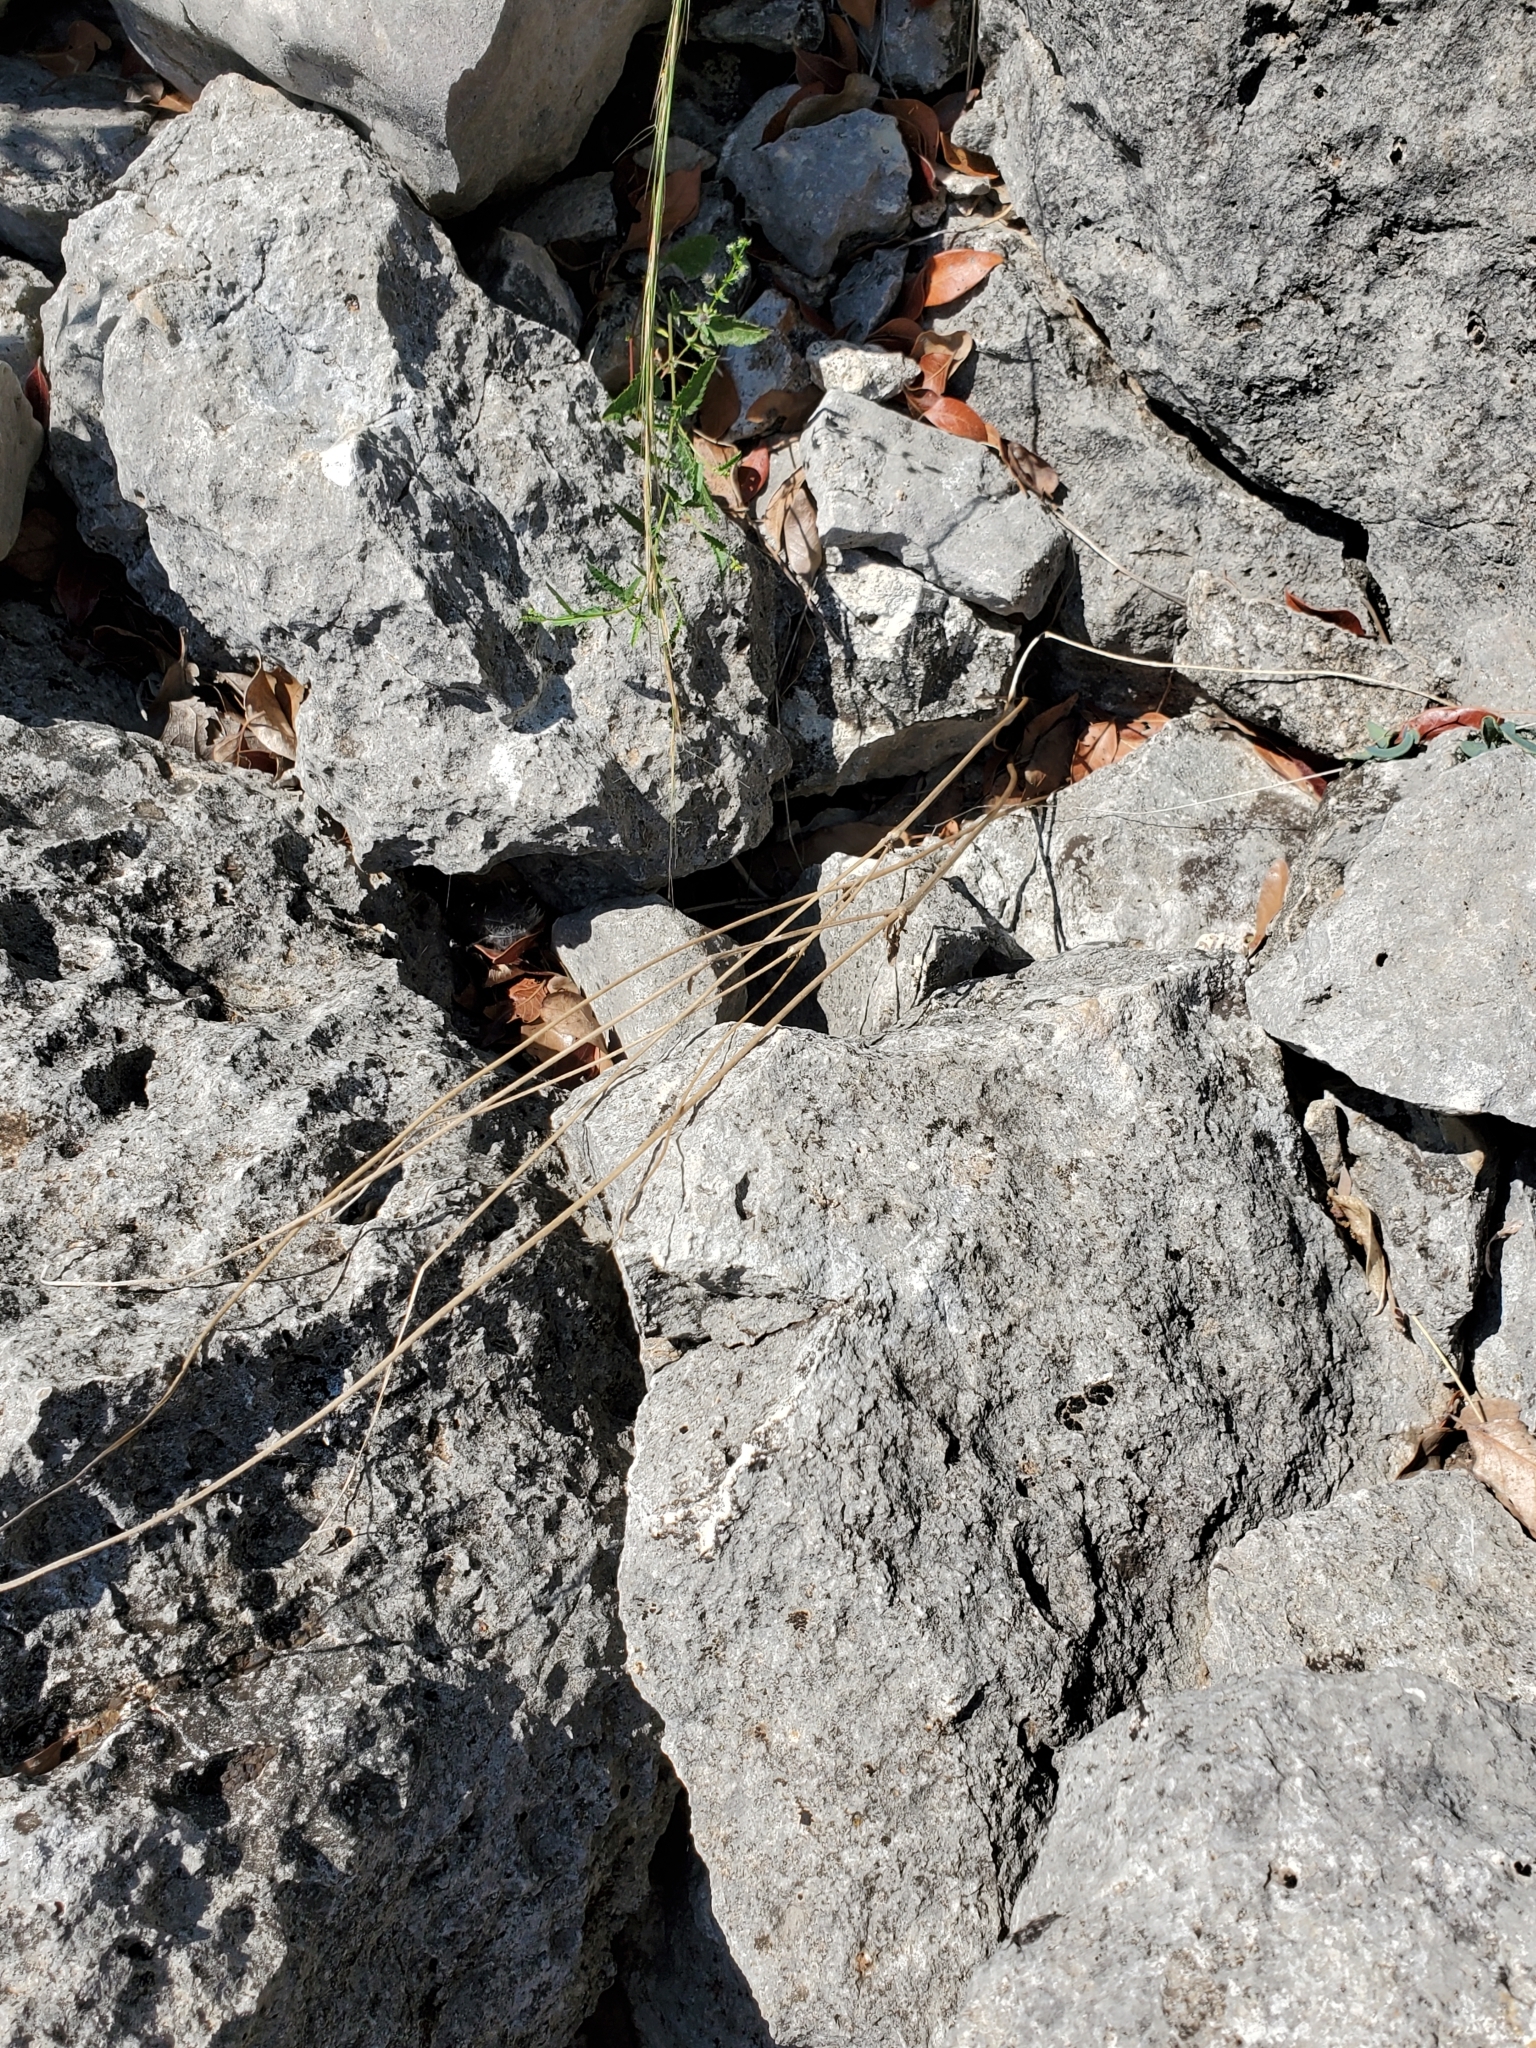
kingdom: Plantae
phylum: Tracheophyta
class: Magnoliopsida
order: Ranunculales
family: Ranunculaceae
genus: Anemone
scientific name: Anemone edwardsiana
